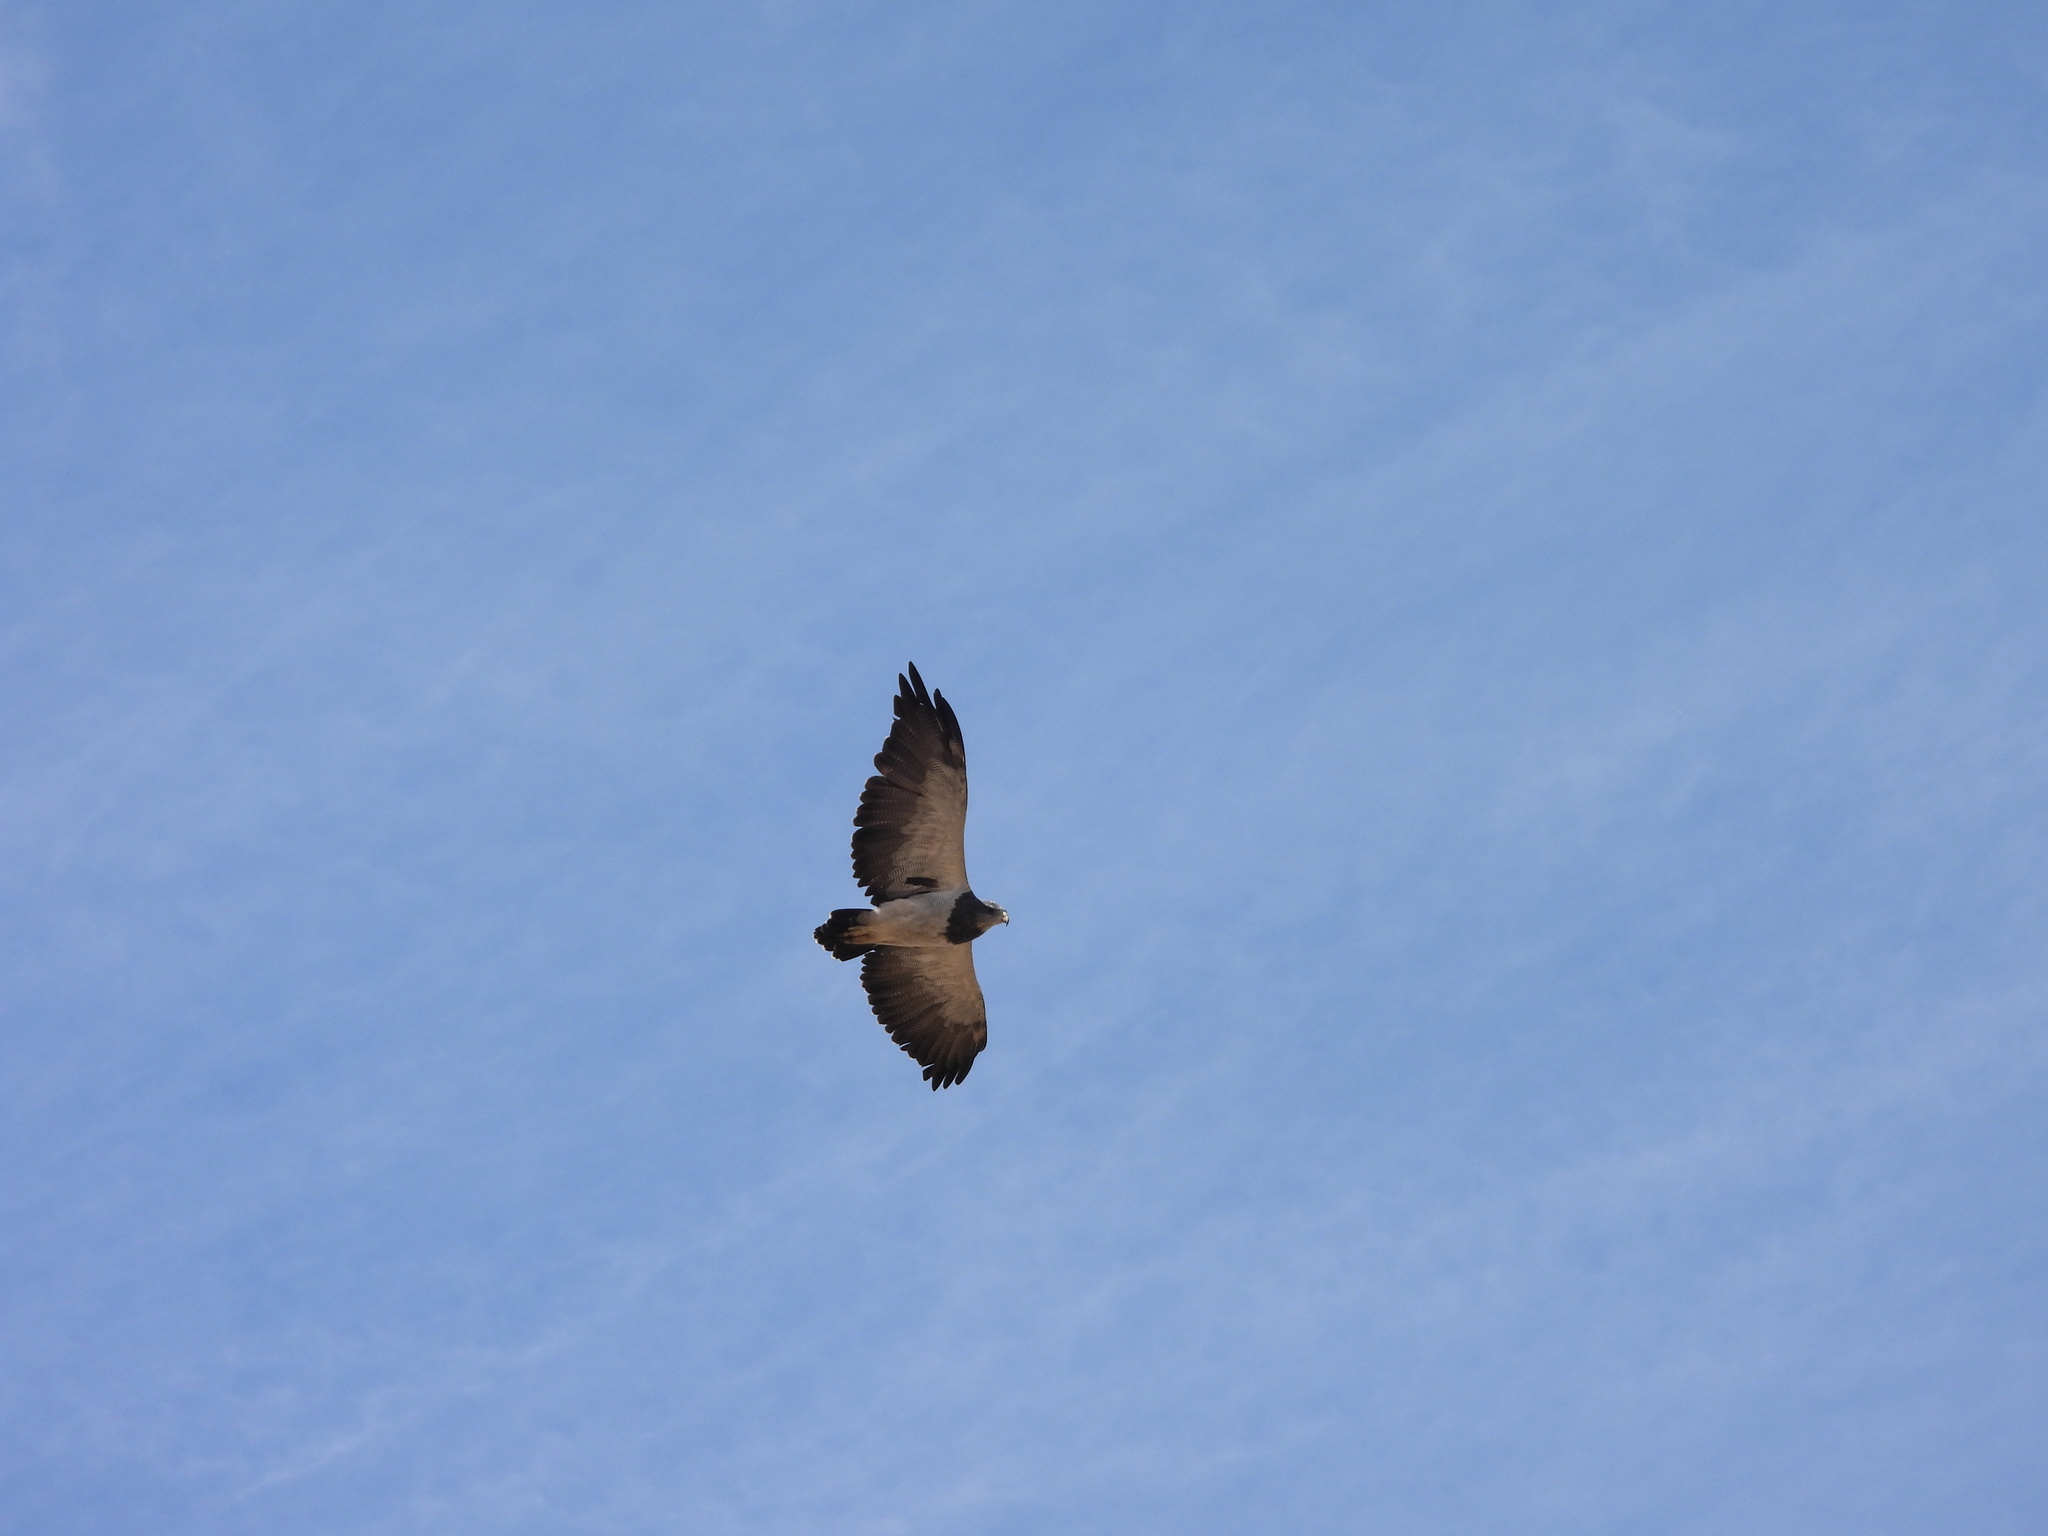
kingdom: Animalia
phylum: Chordata
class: Aves
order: Accipitriformes
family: Accipitridae
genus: Geranoaetus
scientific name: Geranoaetus melanoleucus
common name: Black-chested buzzard-eagle
